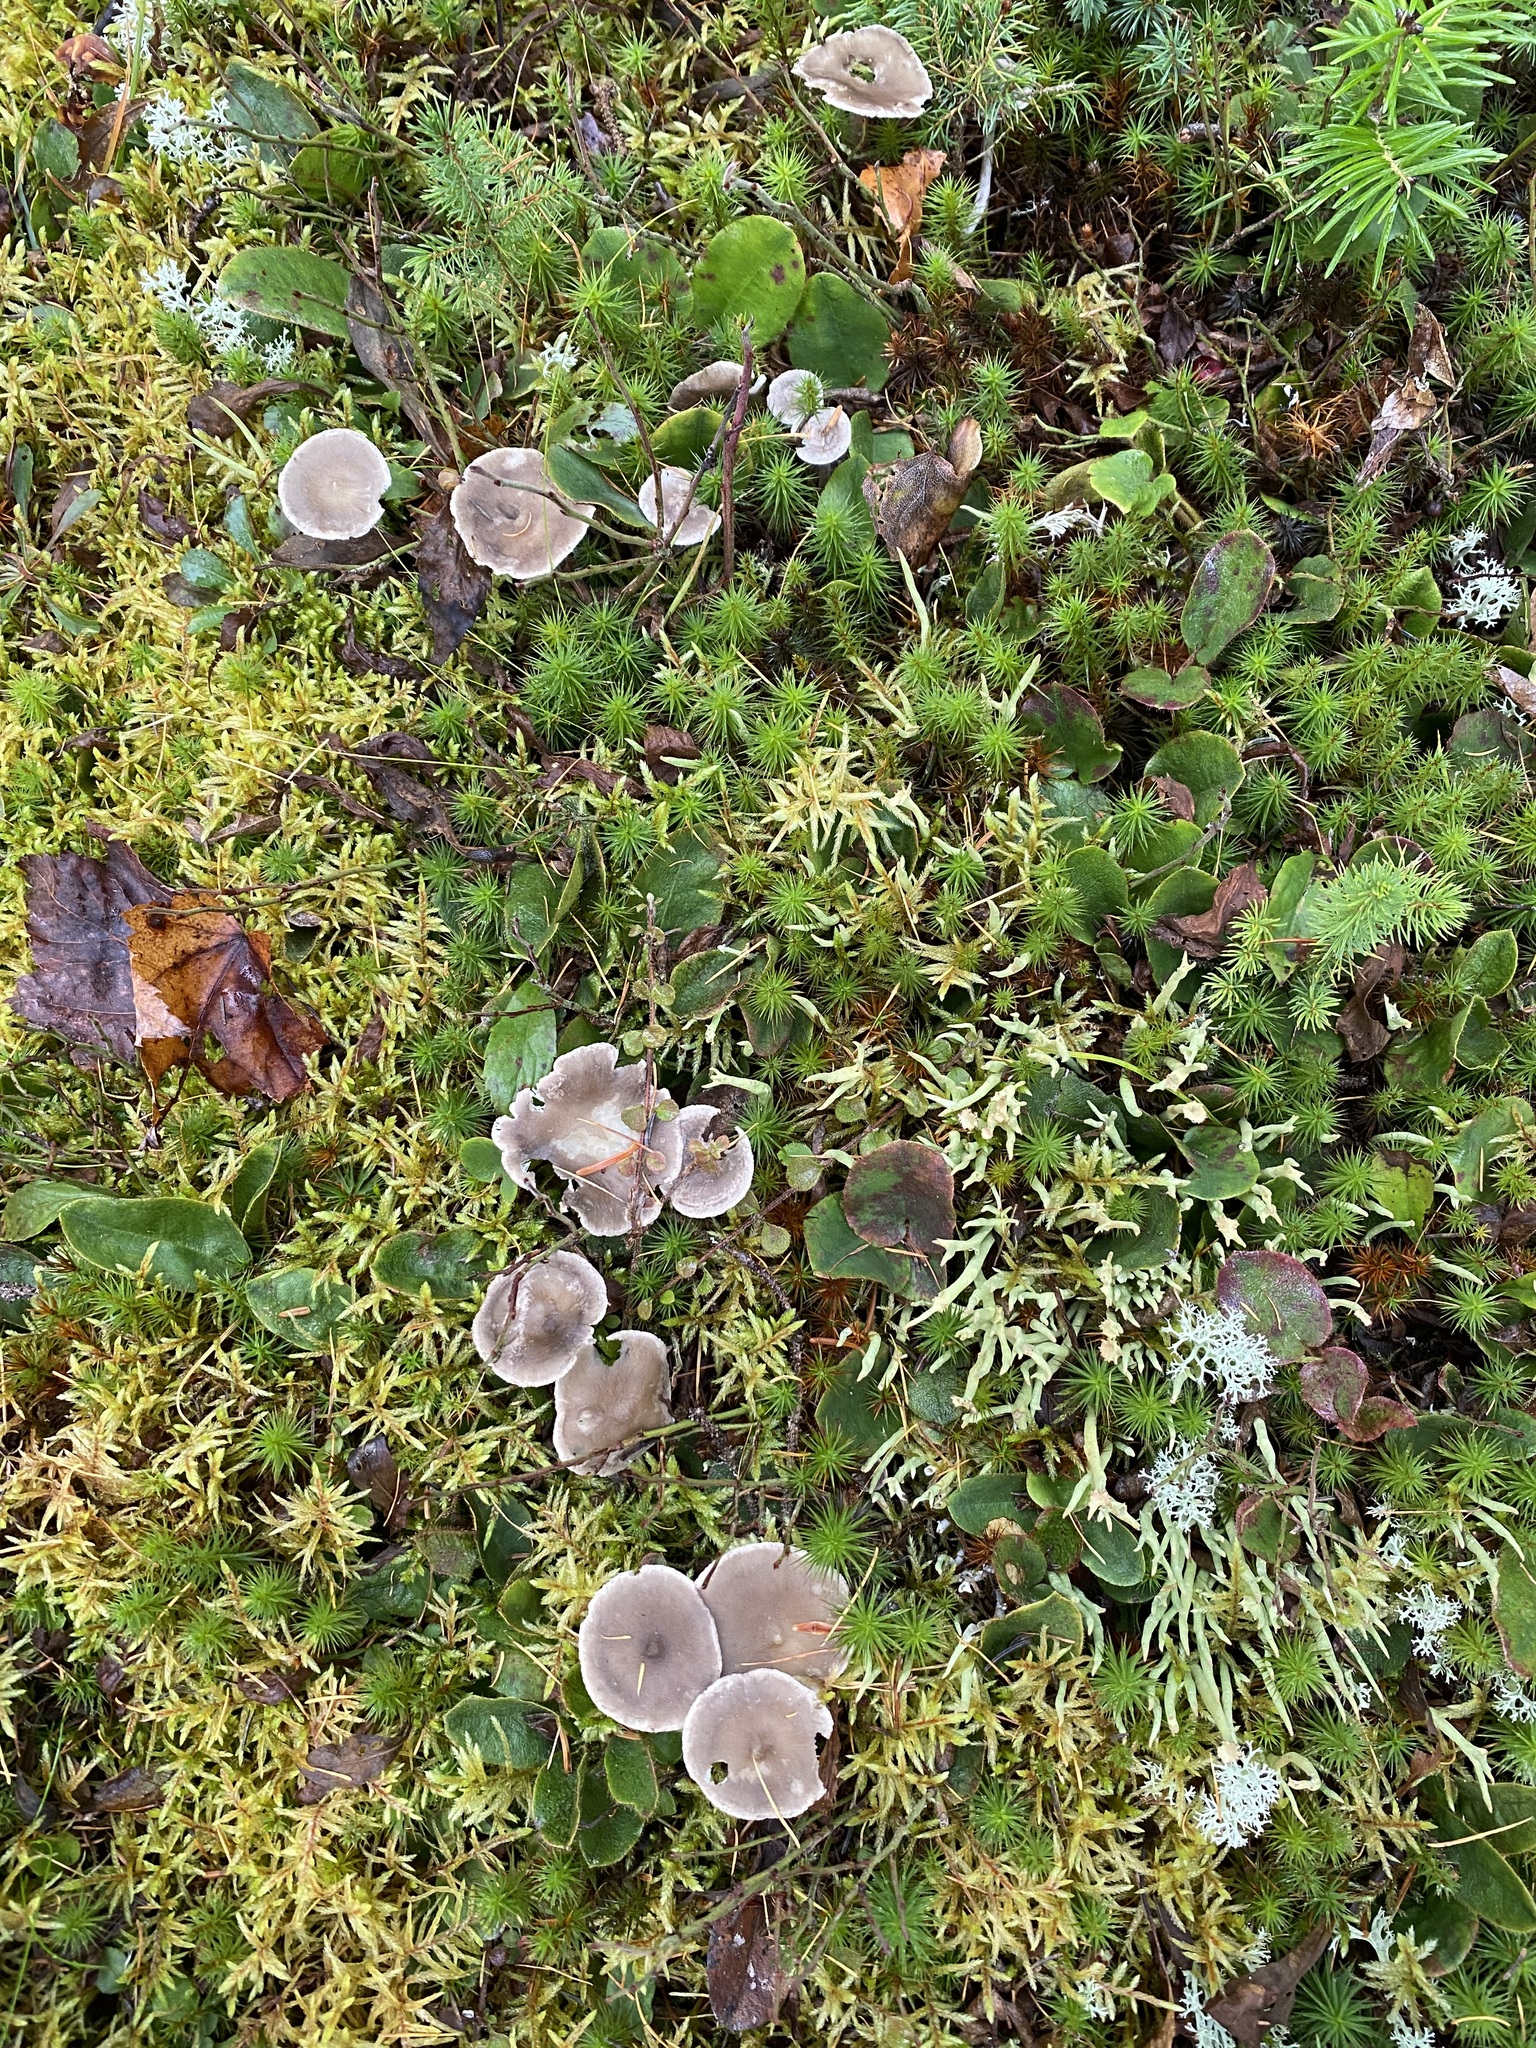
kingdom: Fungi
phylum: Basidiomycota
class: Agaricomycetes
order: Agaricales
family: Hygrophoraceae
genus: Cantharellula
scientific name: Cantharellula umbonata
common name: The humpback
